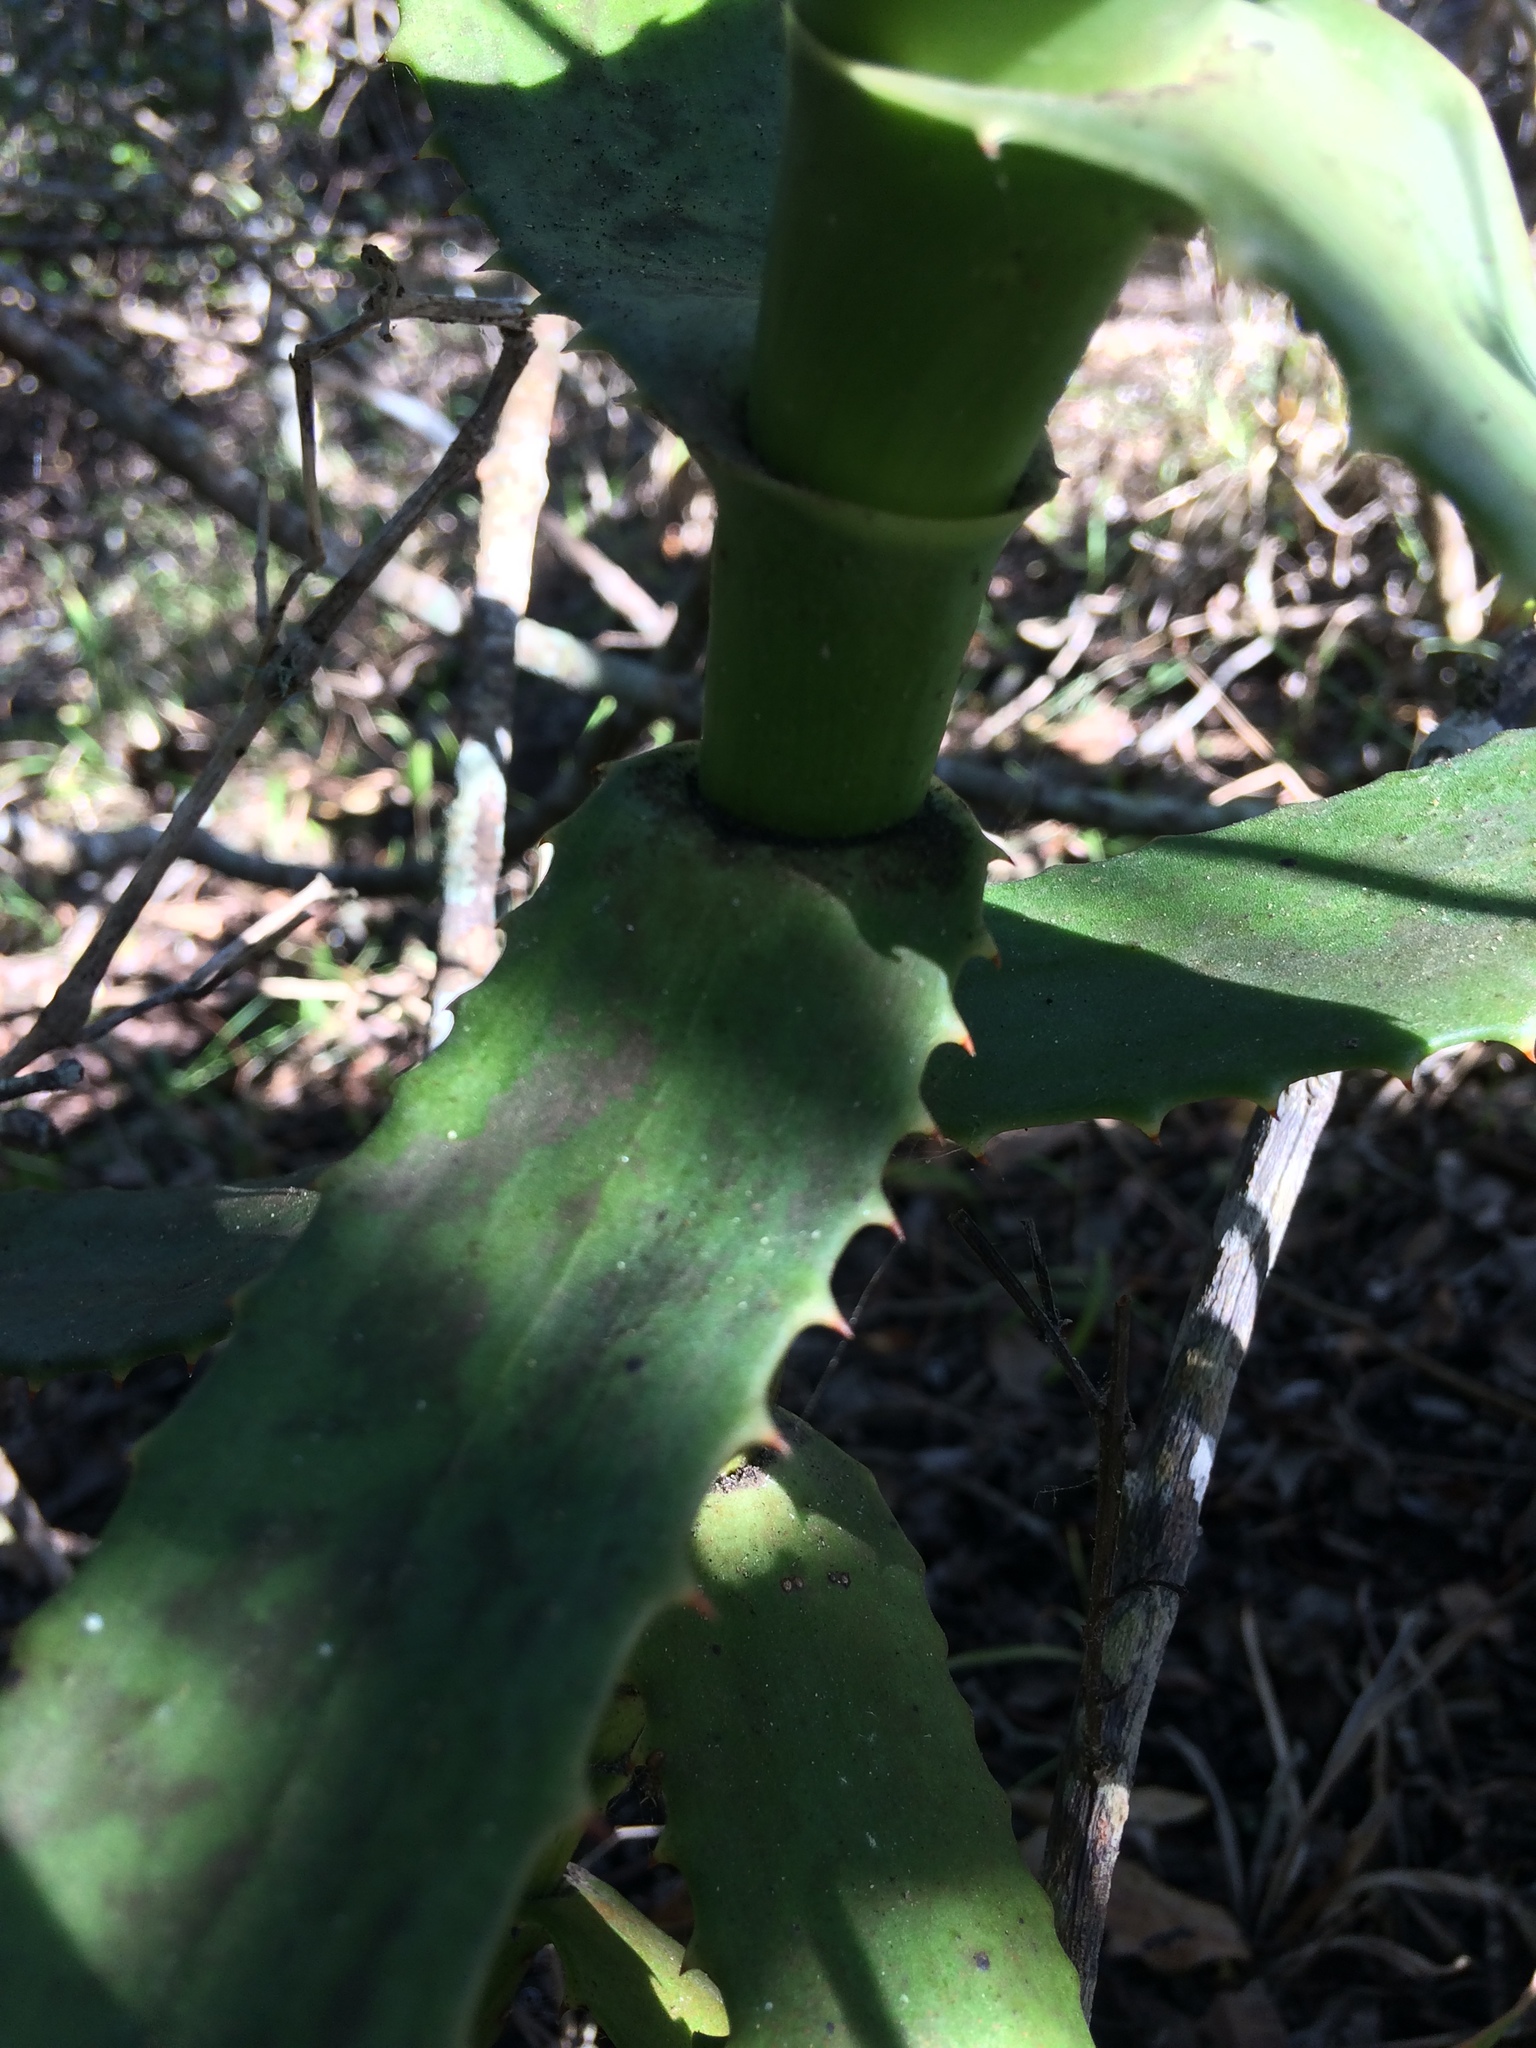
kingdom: Plantae
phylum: Tracheophyta
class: Liliopsida
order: Asparagales
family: Asphodelaceae
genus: Aloe
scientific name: Aloe arborescens
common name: Candelabra aloe
